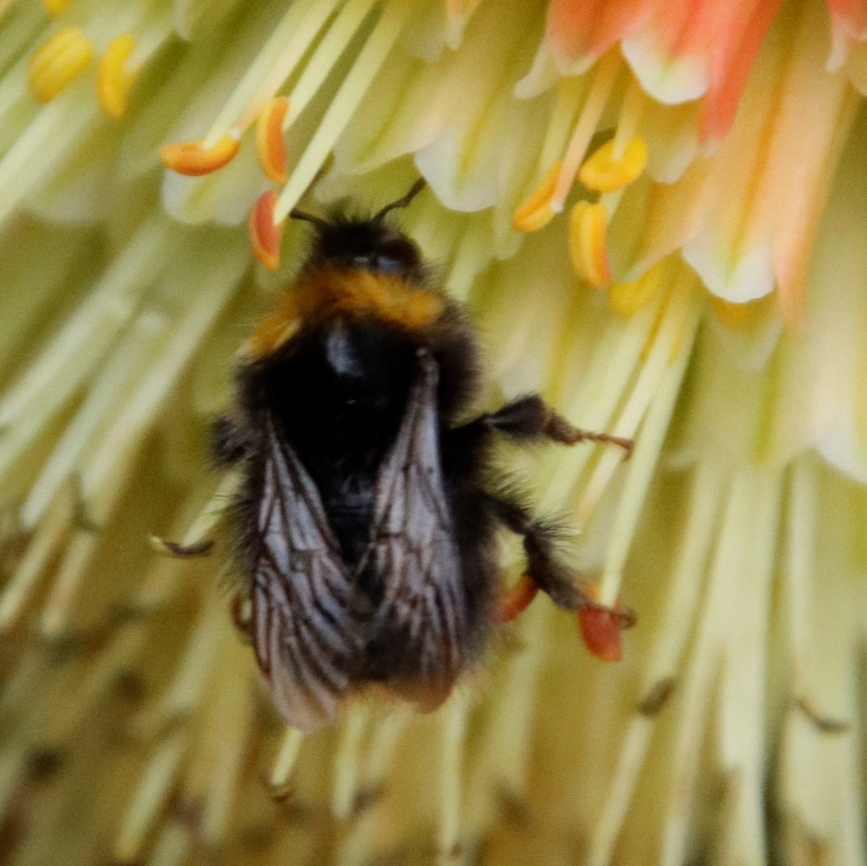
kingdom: Animalia
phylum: Arthropoda
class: Insecta
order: Hymenoptera
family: Apidae
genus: Bombus
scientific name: Bombus pratorum
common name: Early humble-bee
